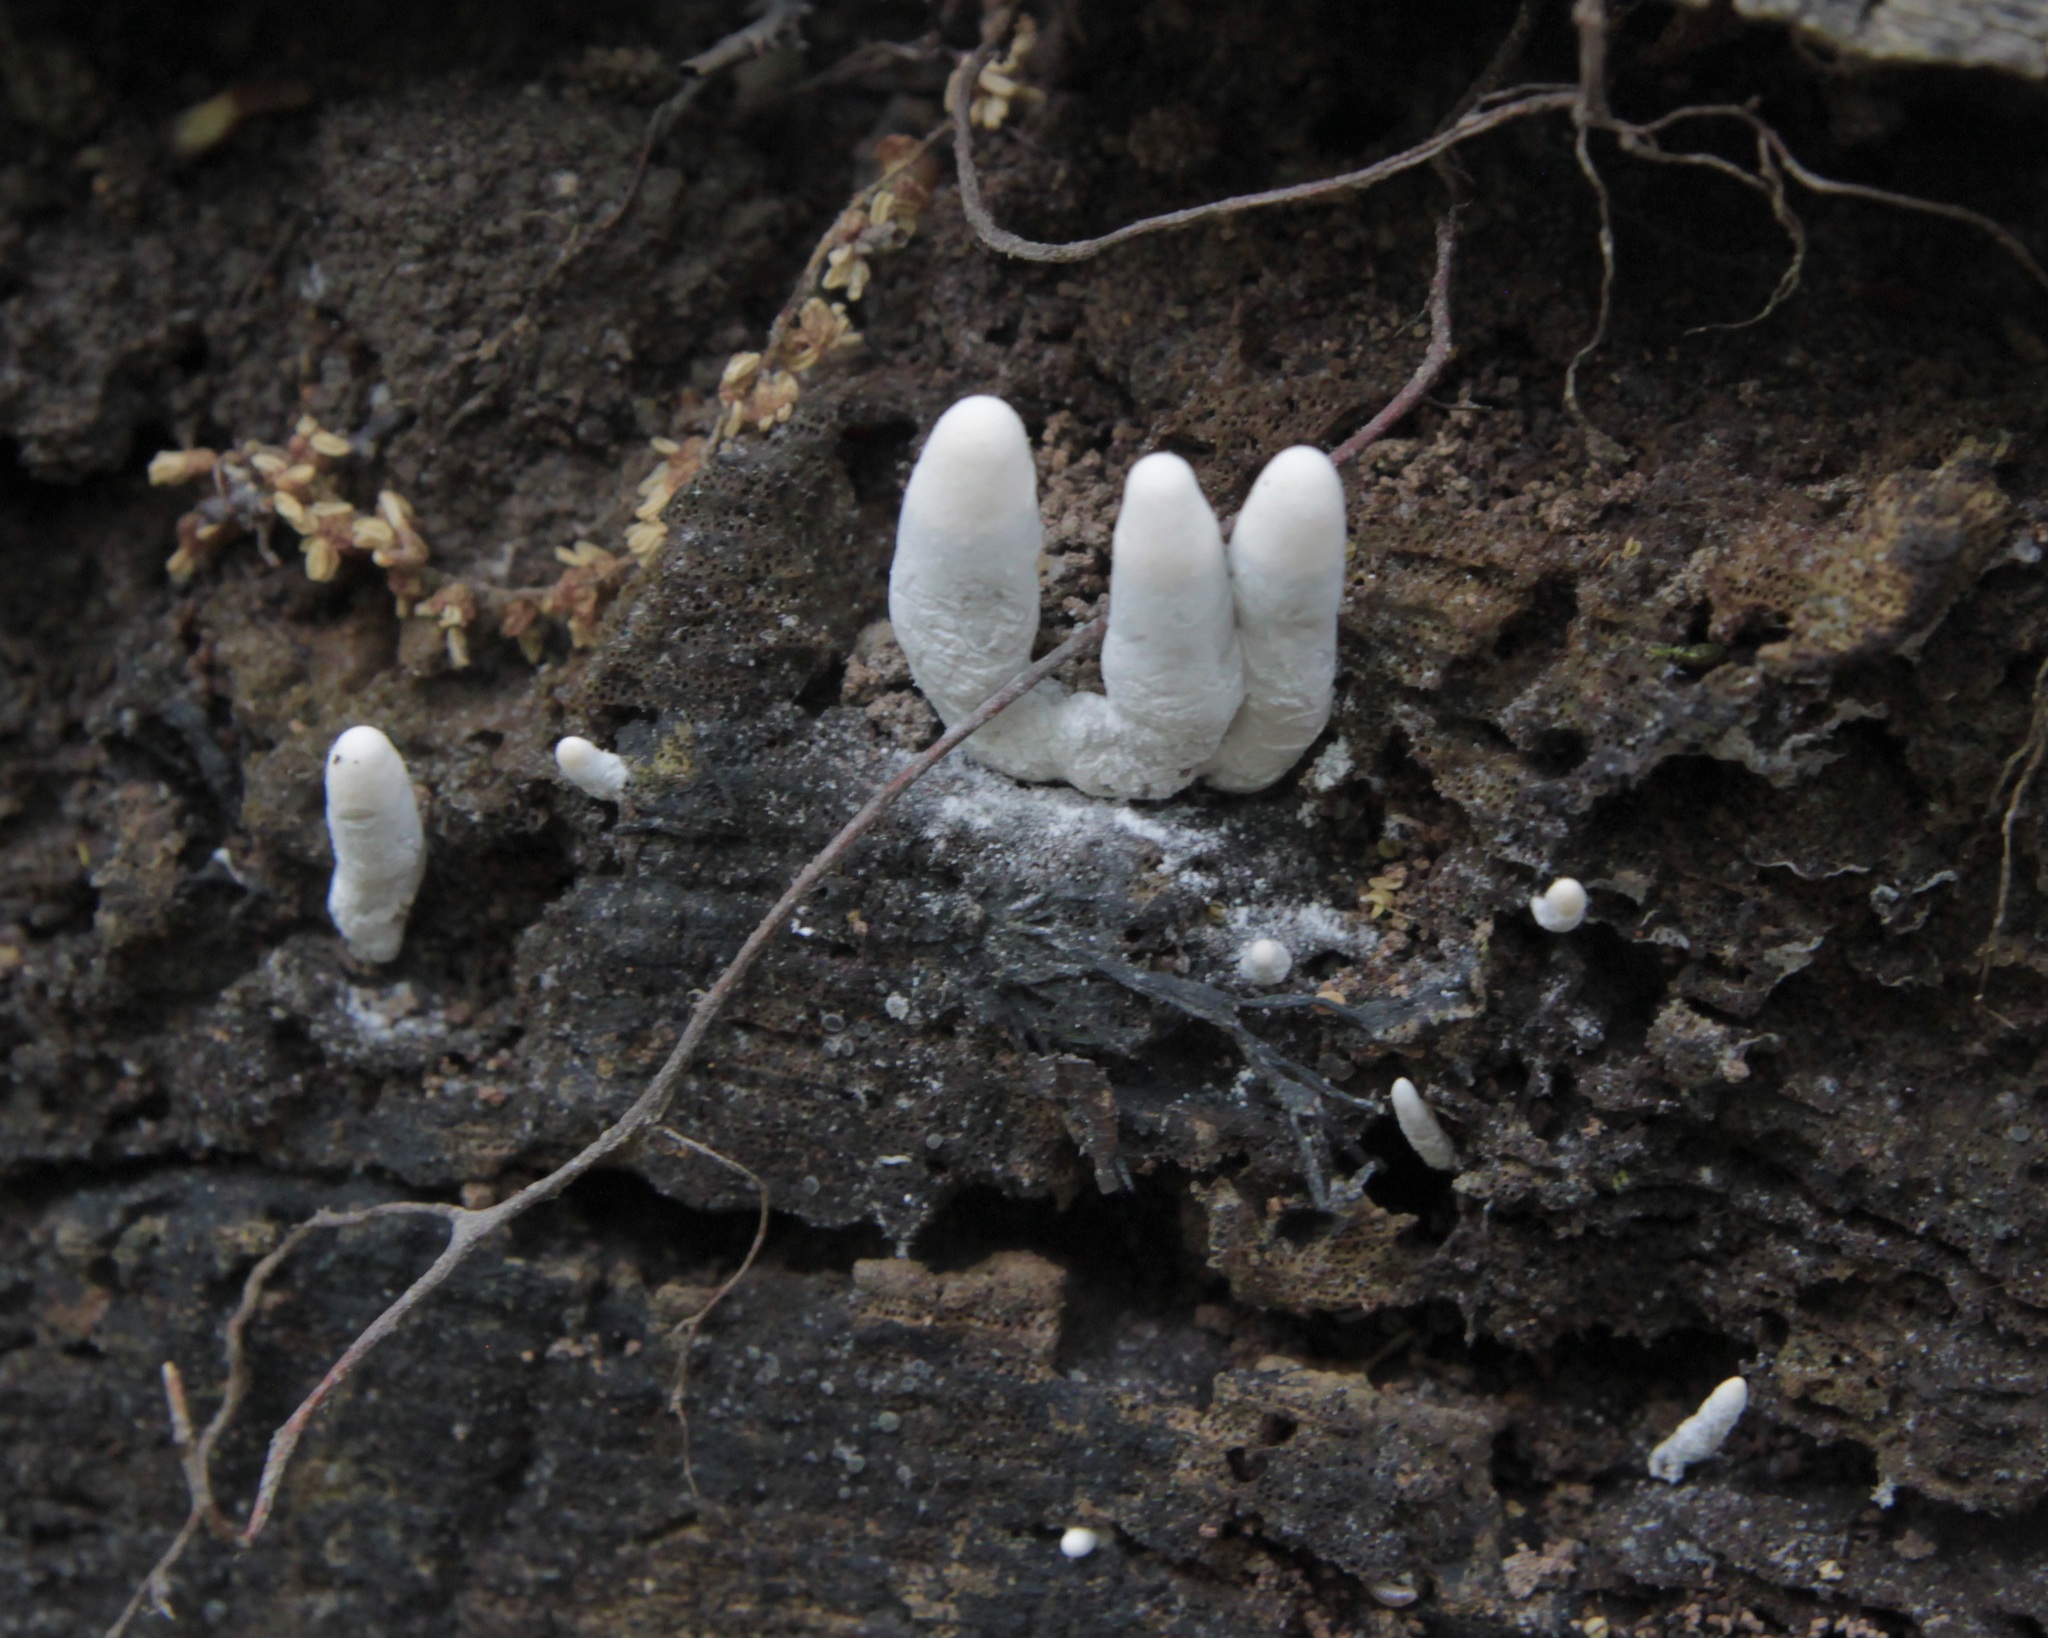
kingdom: Fungi
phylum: Ascomycota
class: Sordariomycetes
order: Xylariales
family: Xylariaceae
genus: Xylaria
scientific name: Xylaria polymorpha
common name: Dead man's fingers
